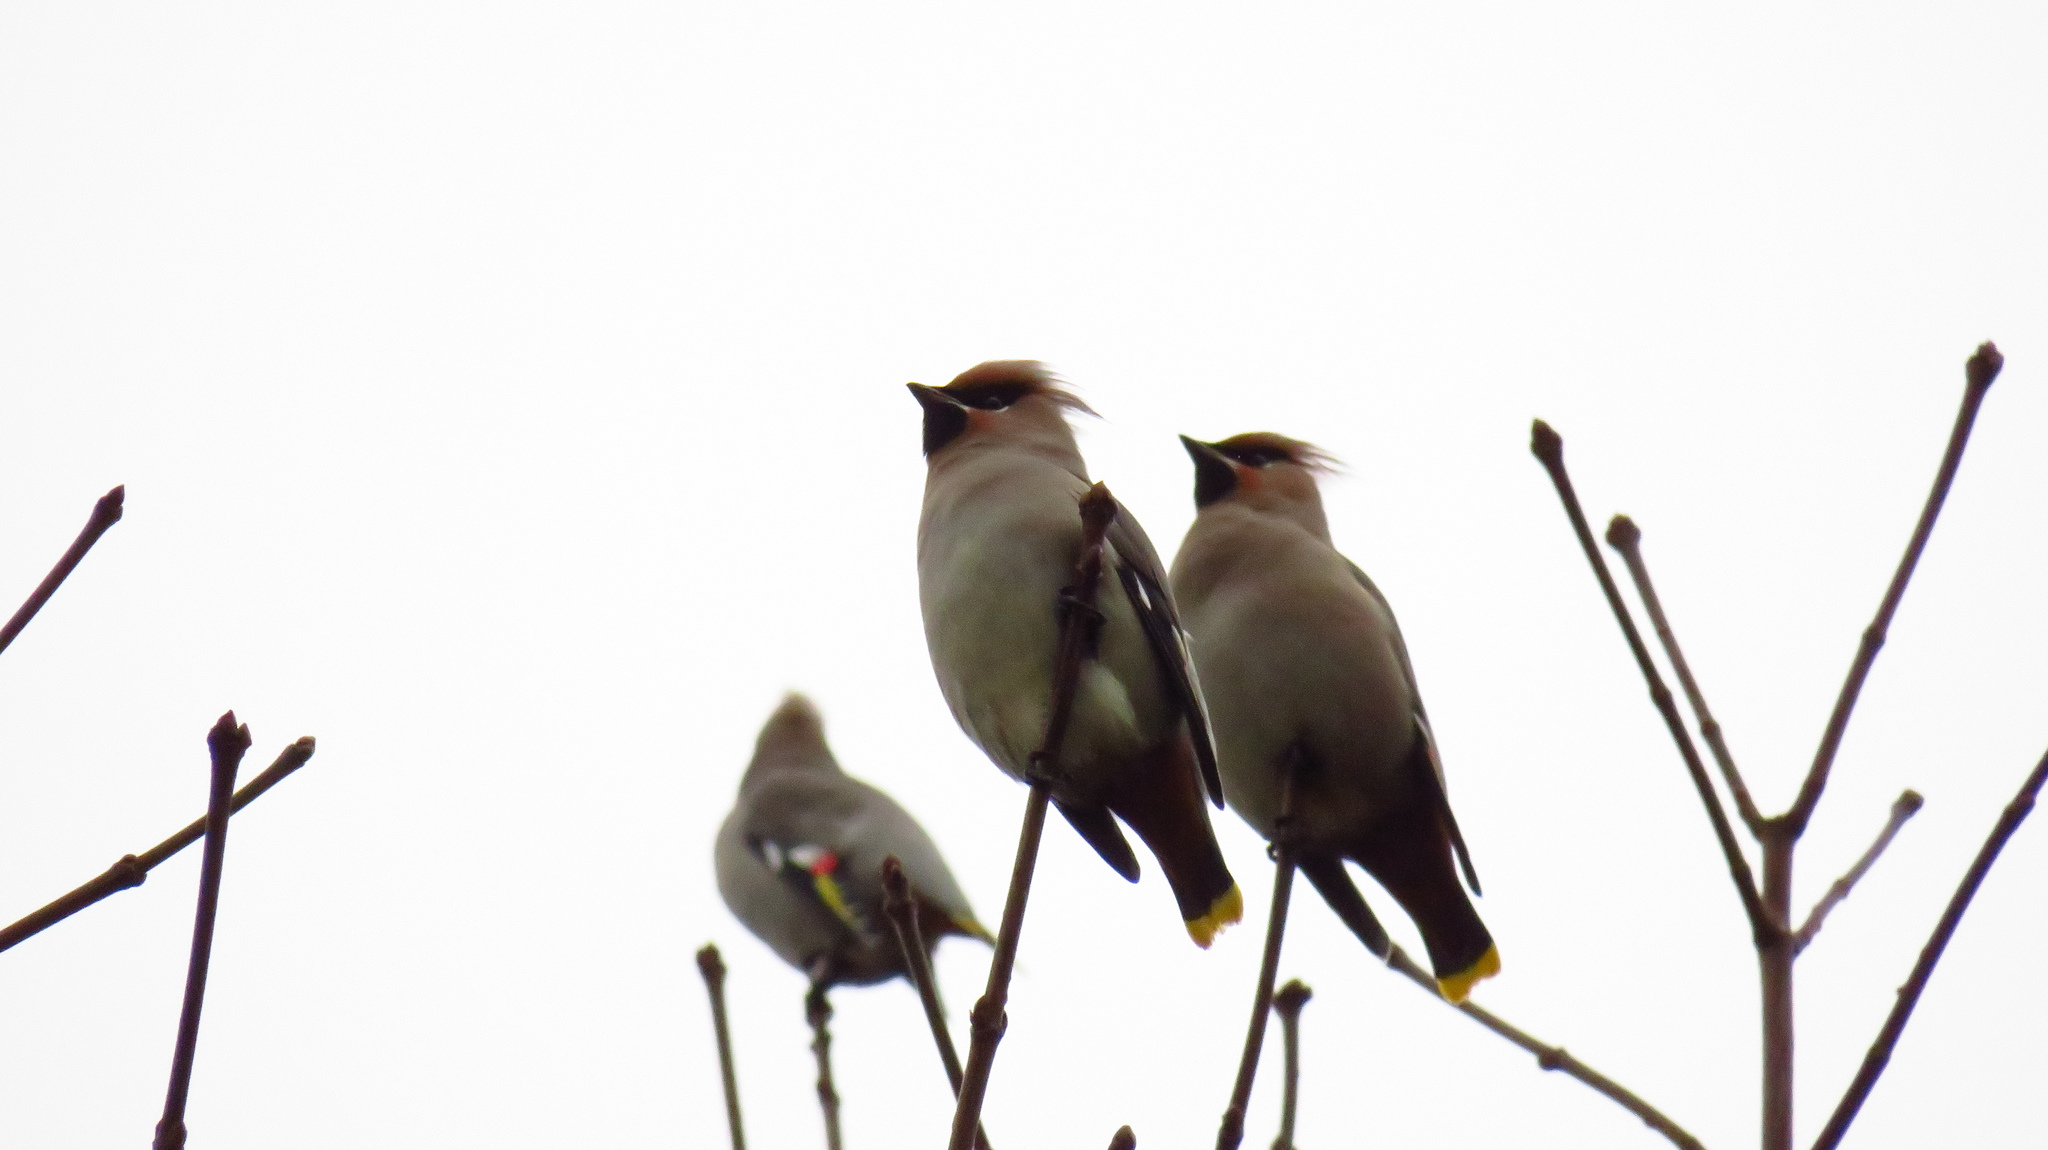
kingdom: Animalia
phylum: Chordata
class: Aves
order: Passeriformes
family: Bombycillidae
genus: Bombycilla
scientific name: Bombycilla garrulus
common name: Bohemian waxwing
